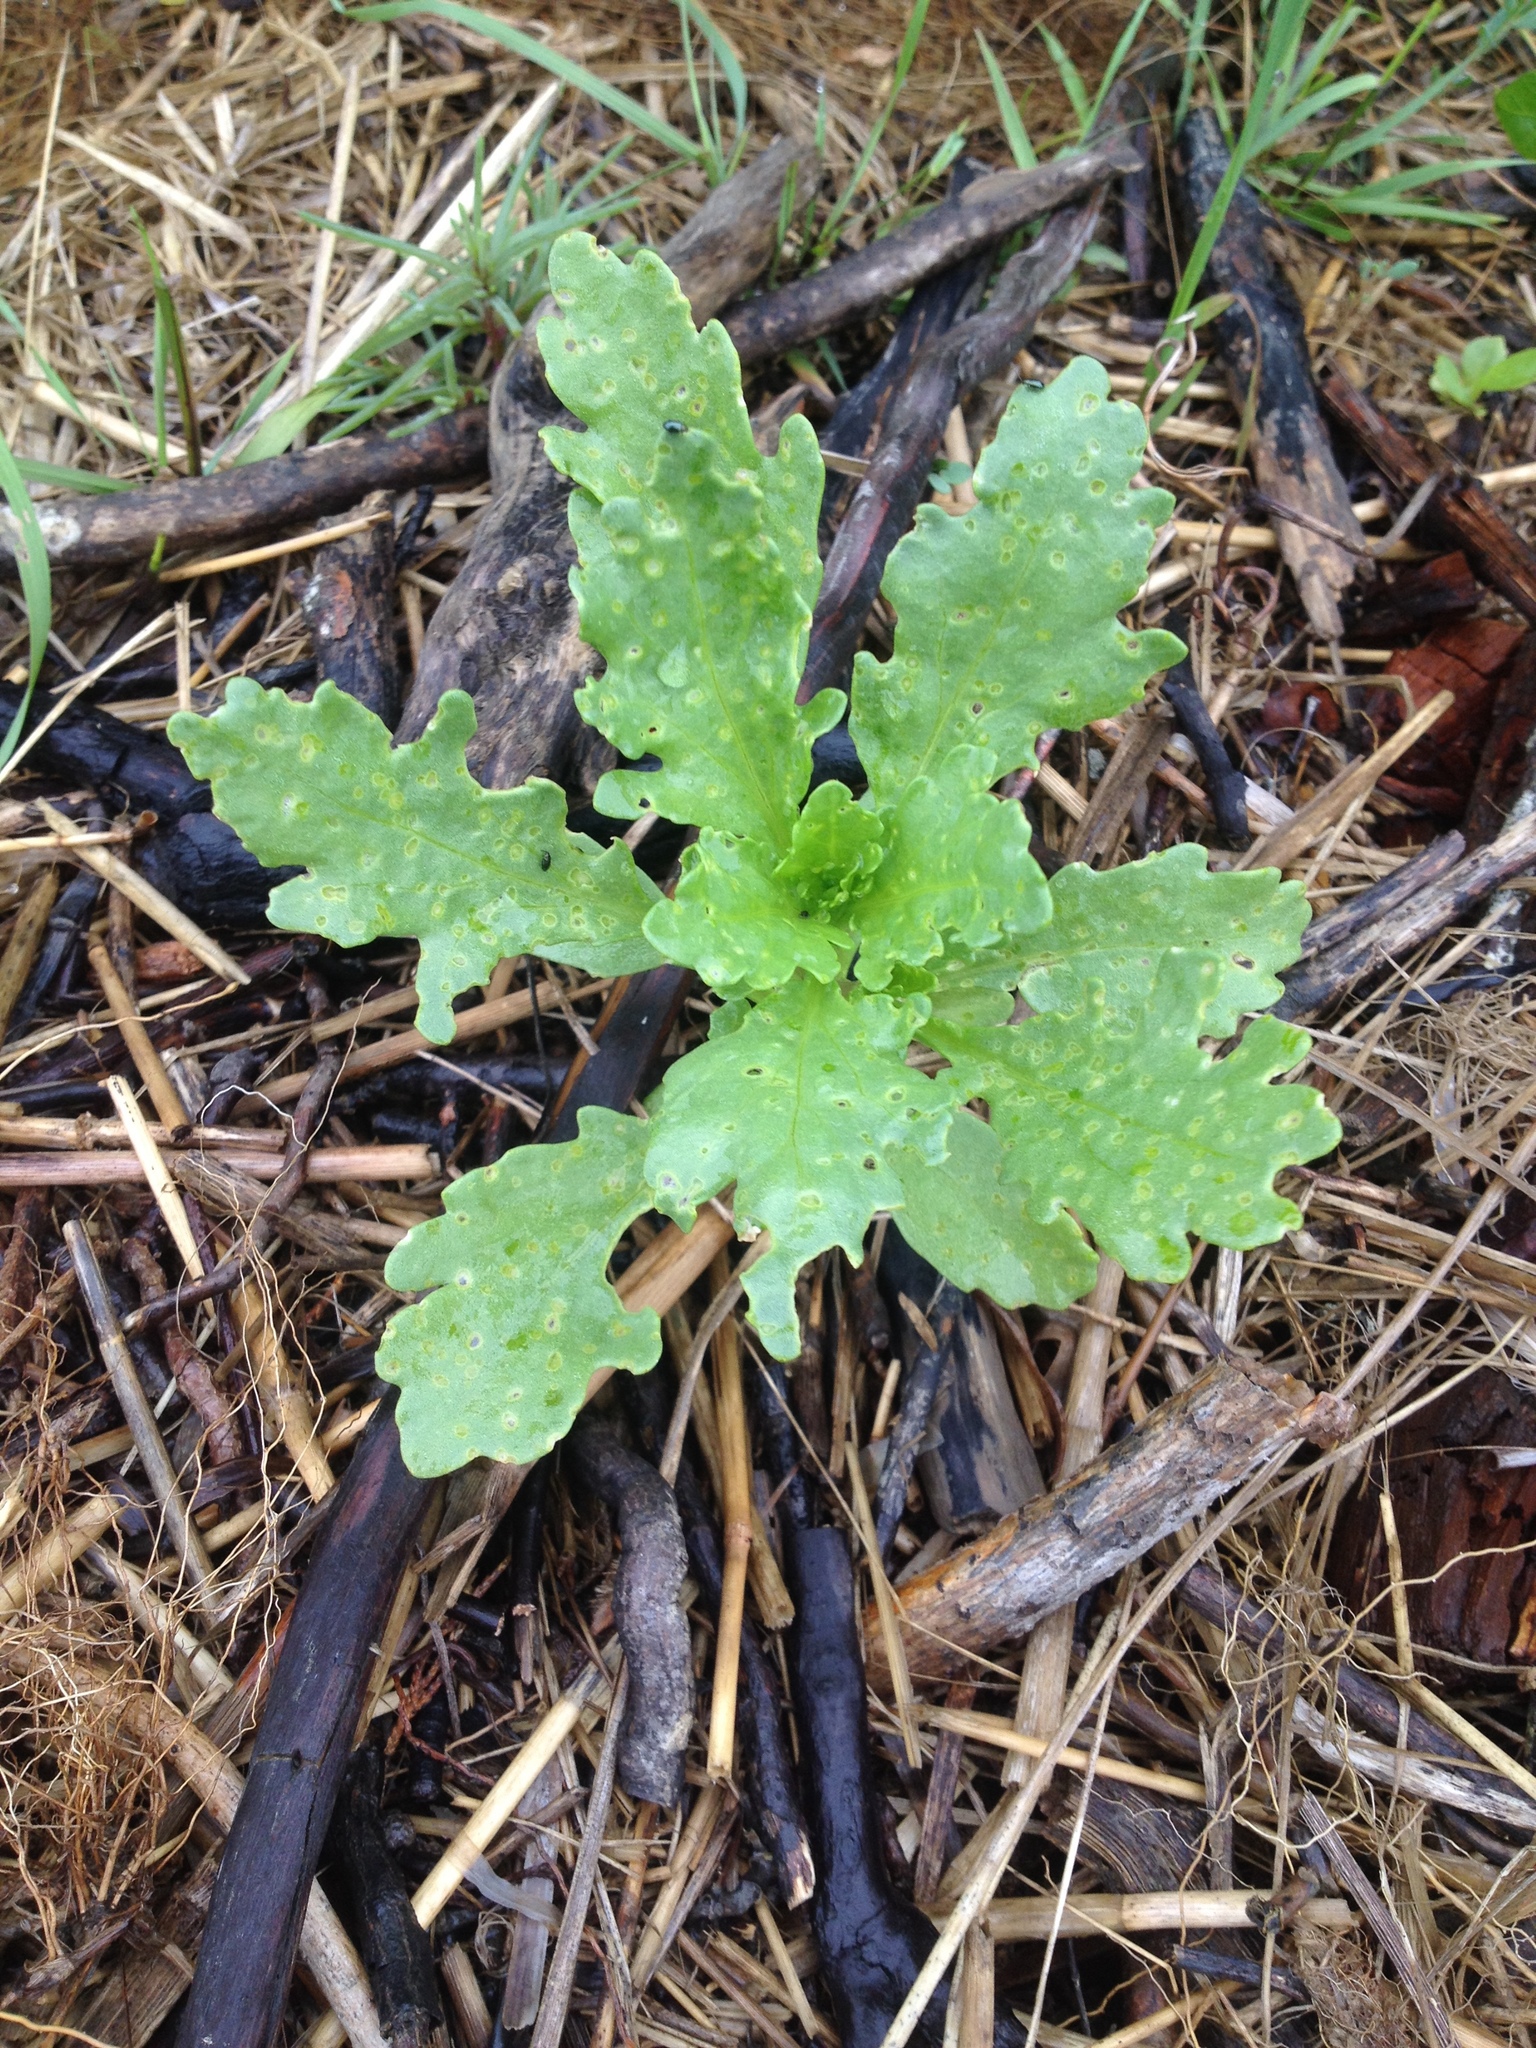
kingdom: Plantae
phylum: Tracheophyta
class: Magnoliopsida
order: Brassicales
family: Brassicaceae
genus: Cakile
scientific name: Cakile edentula
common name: American sea rocket
